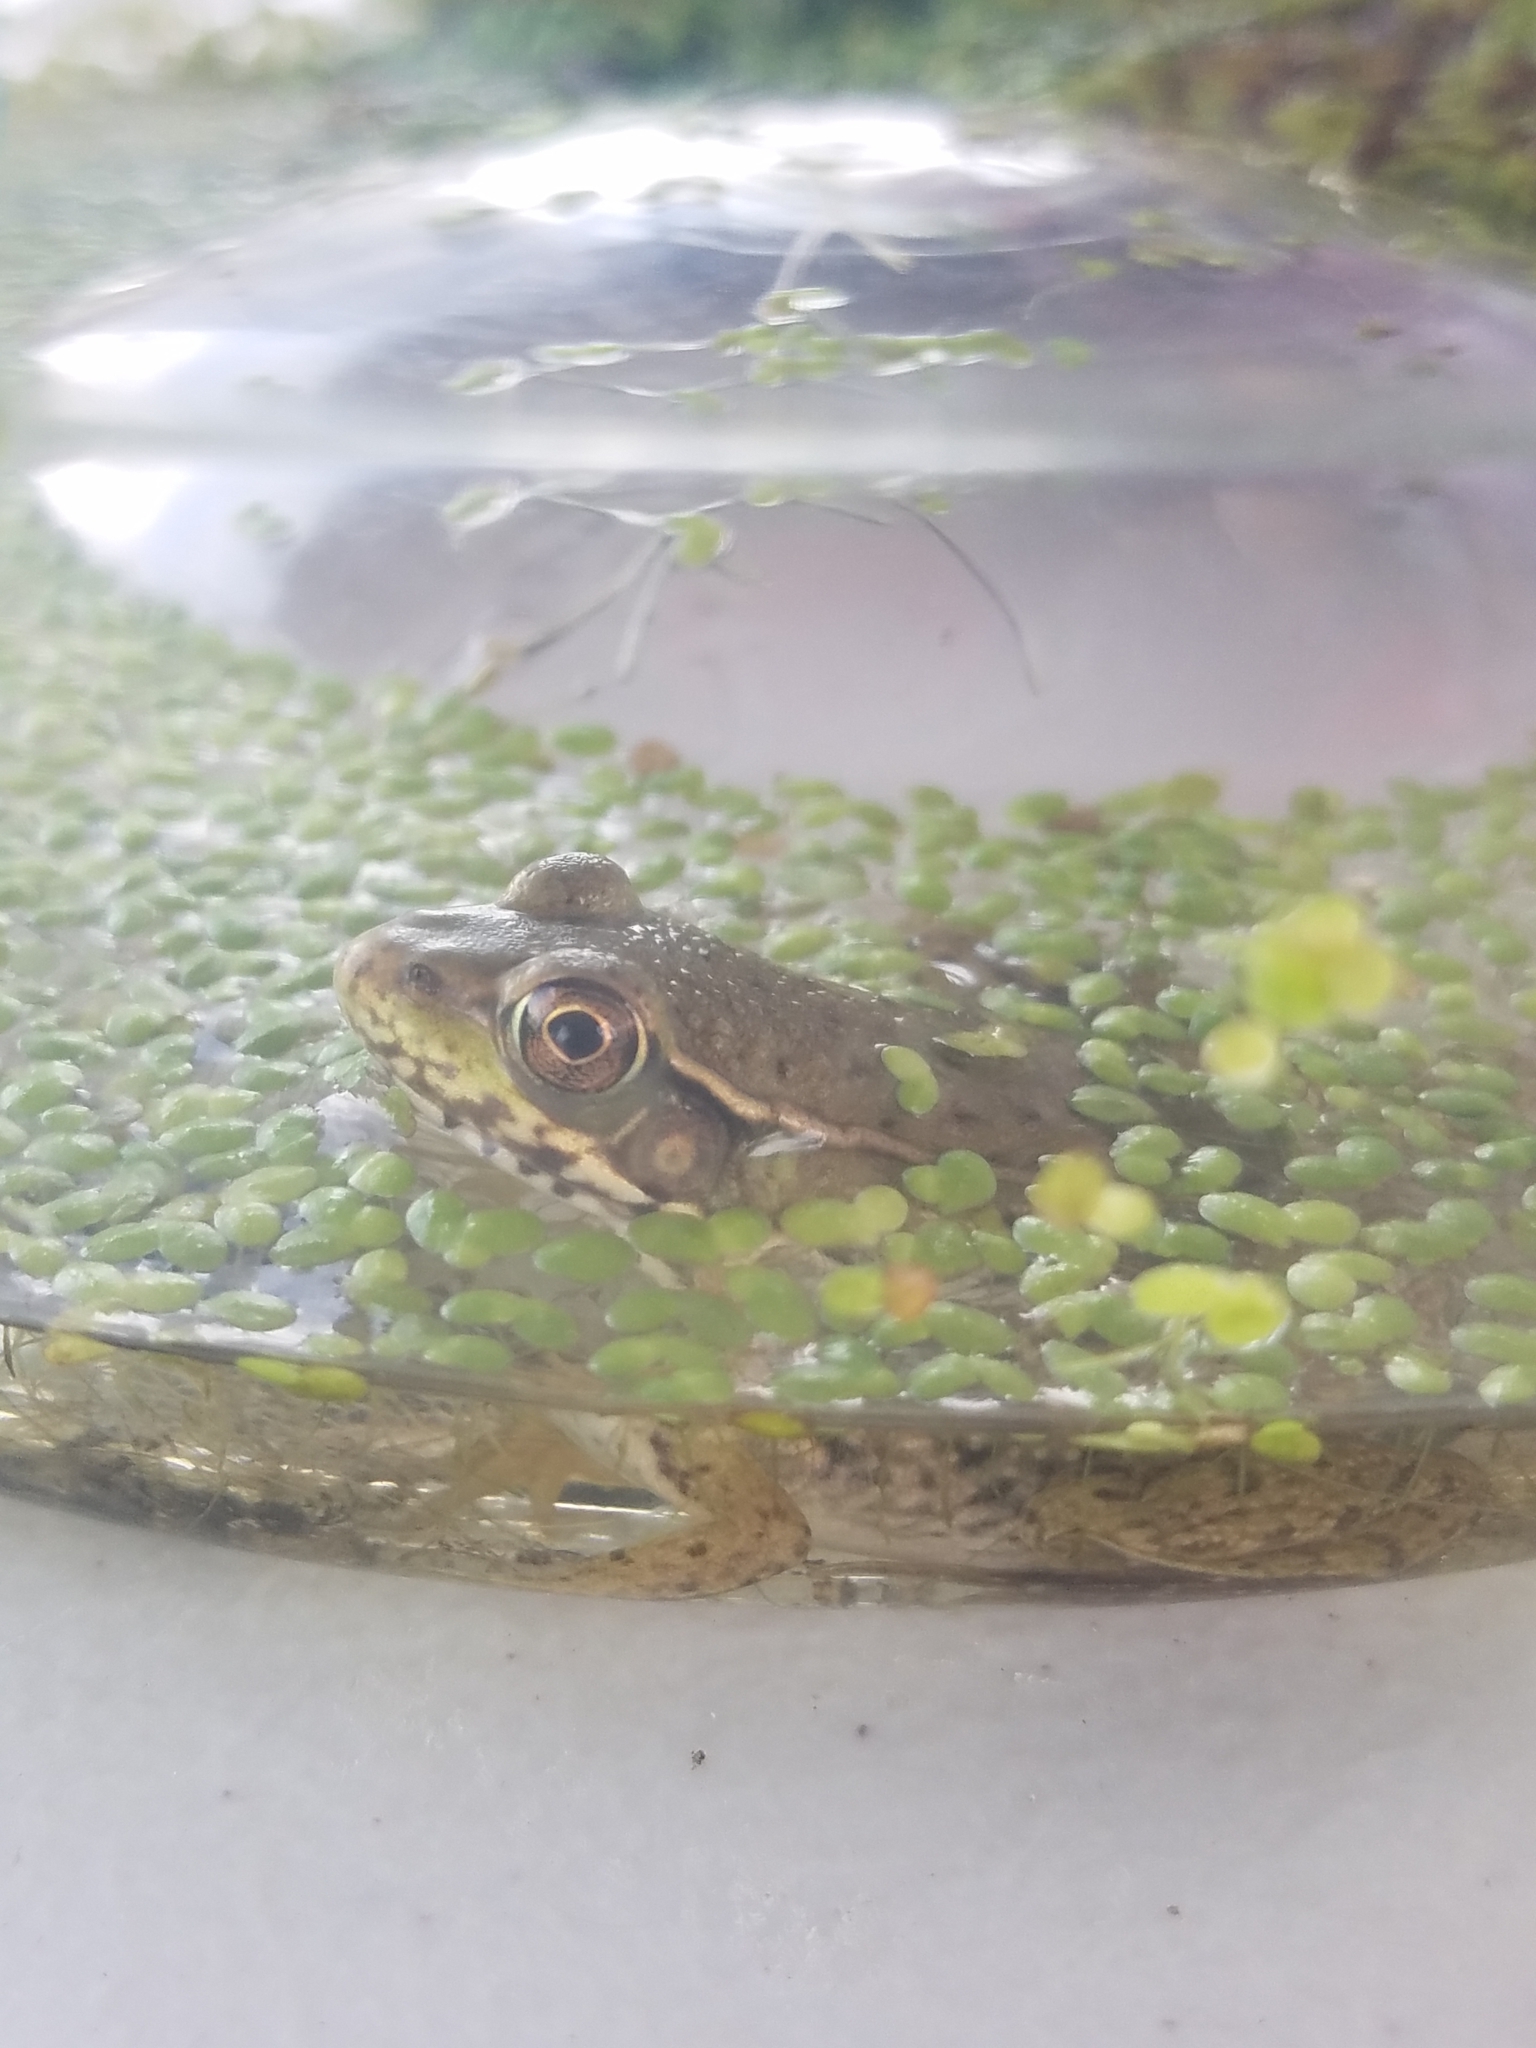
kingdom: Animalia
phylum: Chordata
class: Amphibia
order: Anura
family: Ranidae
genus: Lithobates
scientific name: Lithobates clamitans
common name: Green frog
